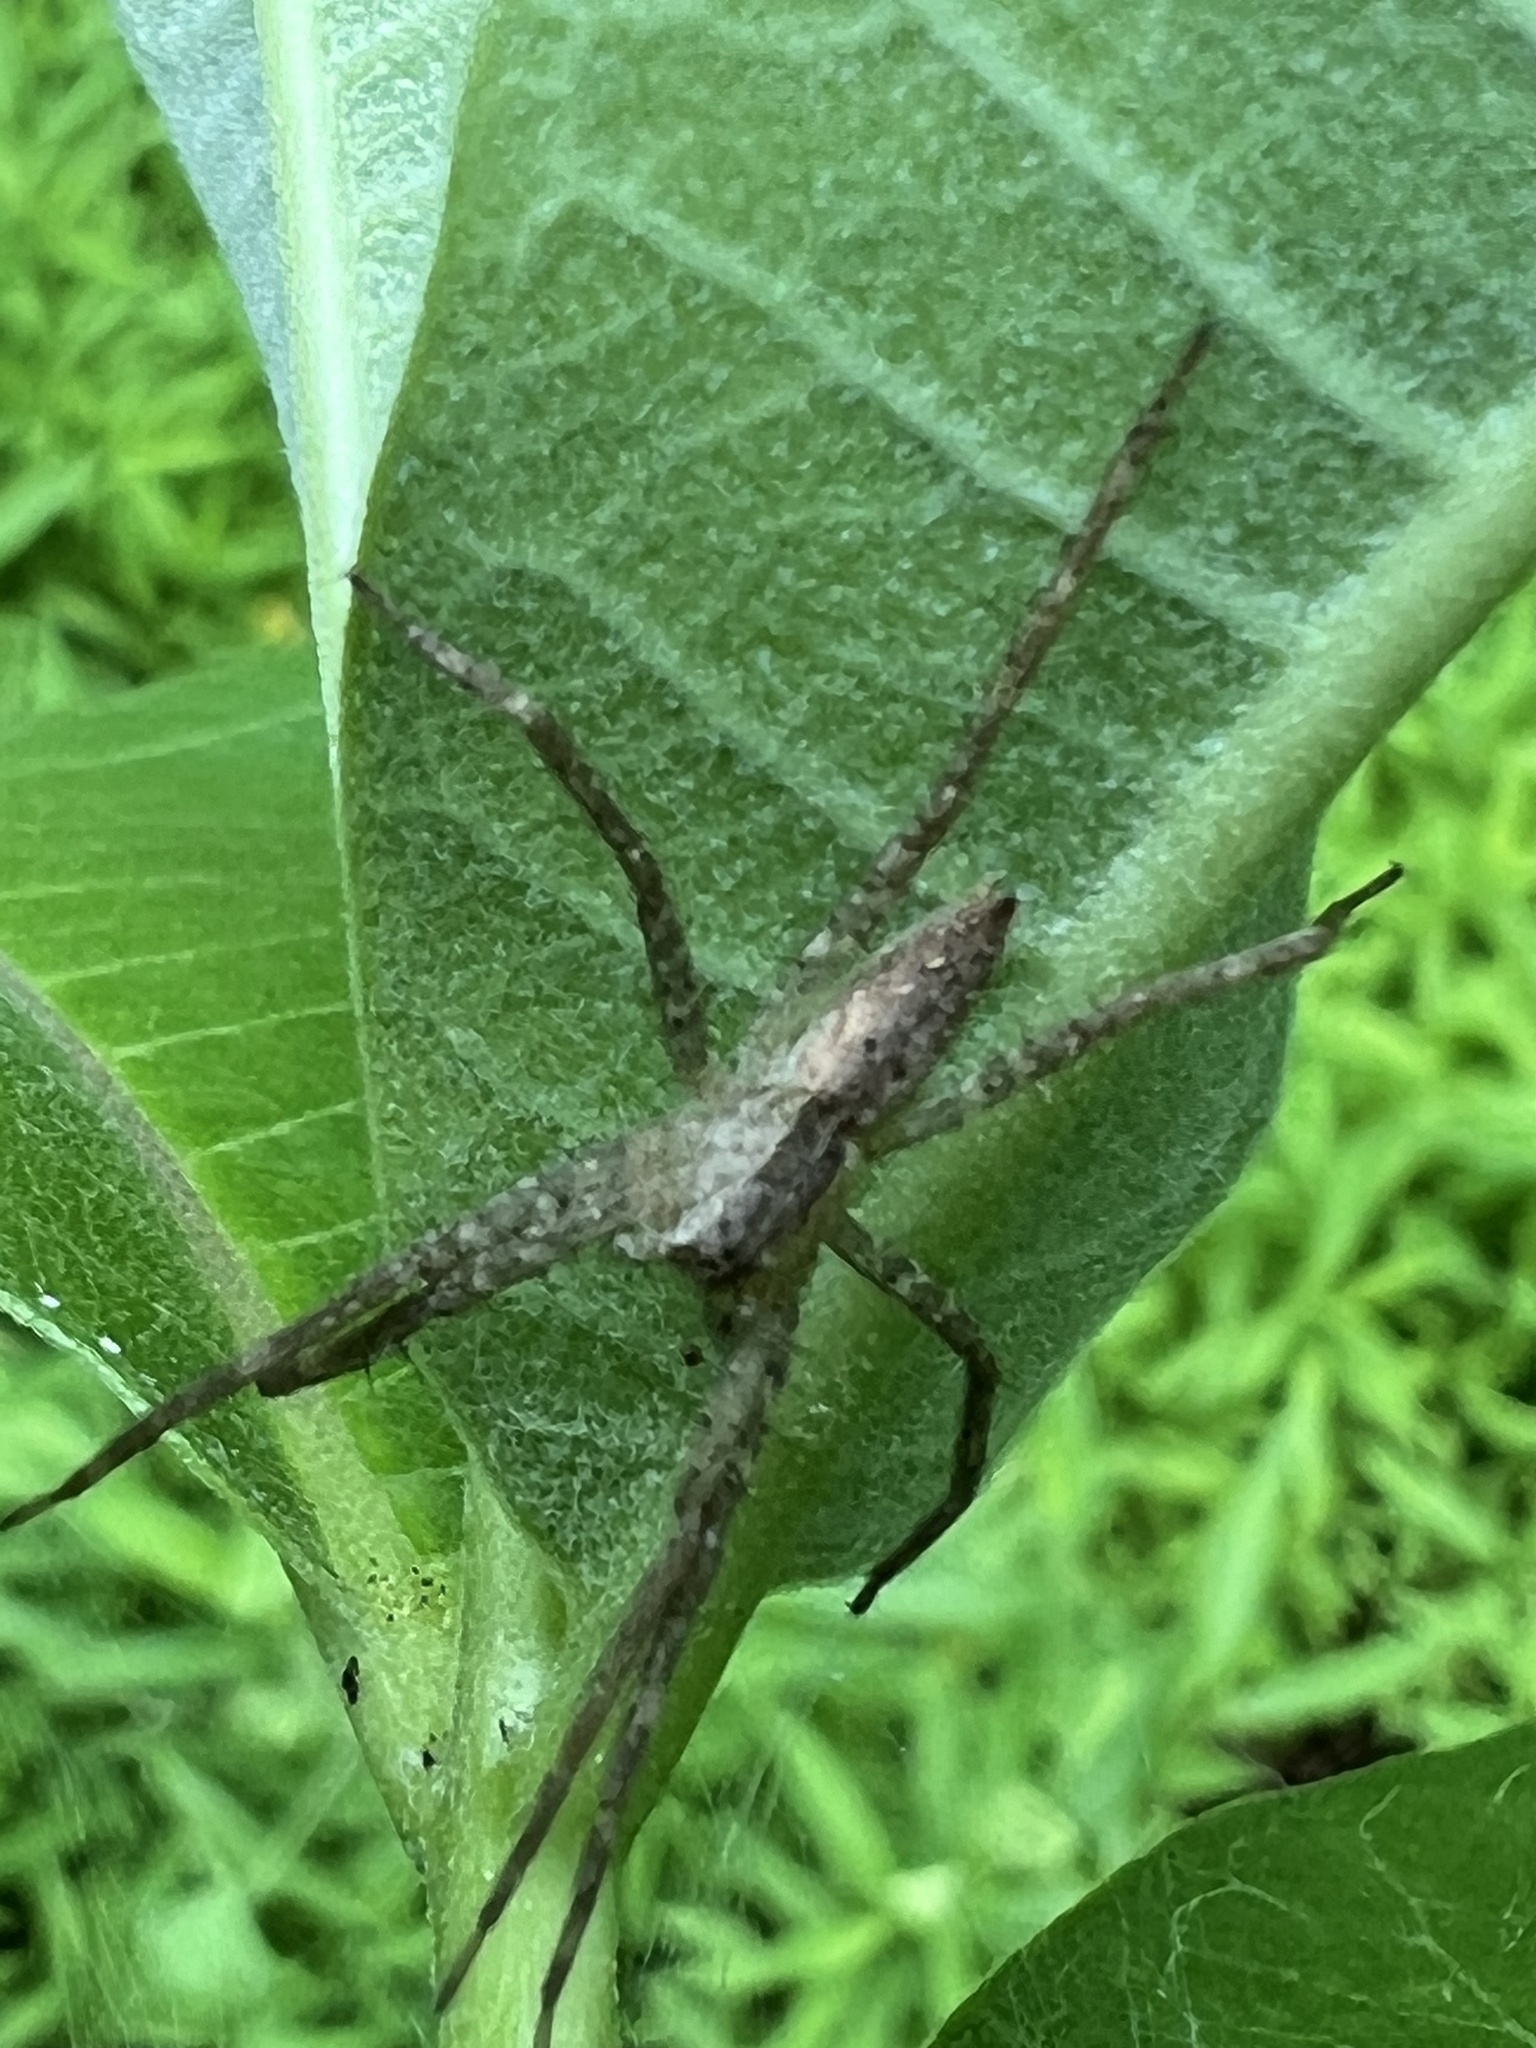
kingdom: Animalia
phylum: Arthropoda
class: Arachnida
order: Araneae
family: Pisauridae
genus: Pisaurina
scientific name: Pisaurina mira
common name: American nursery web spider
